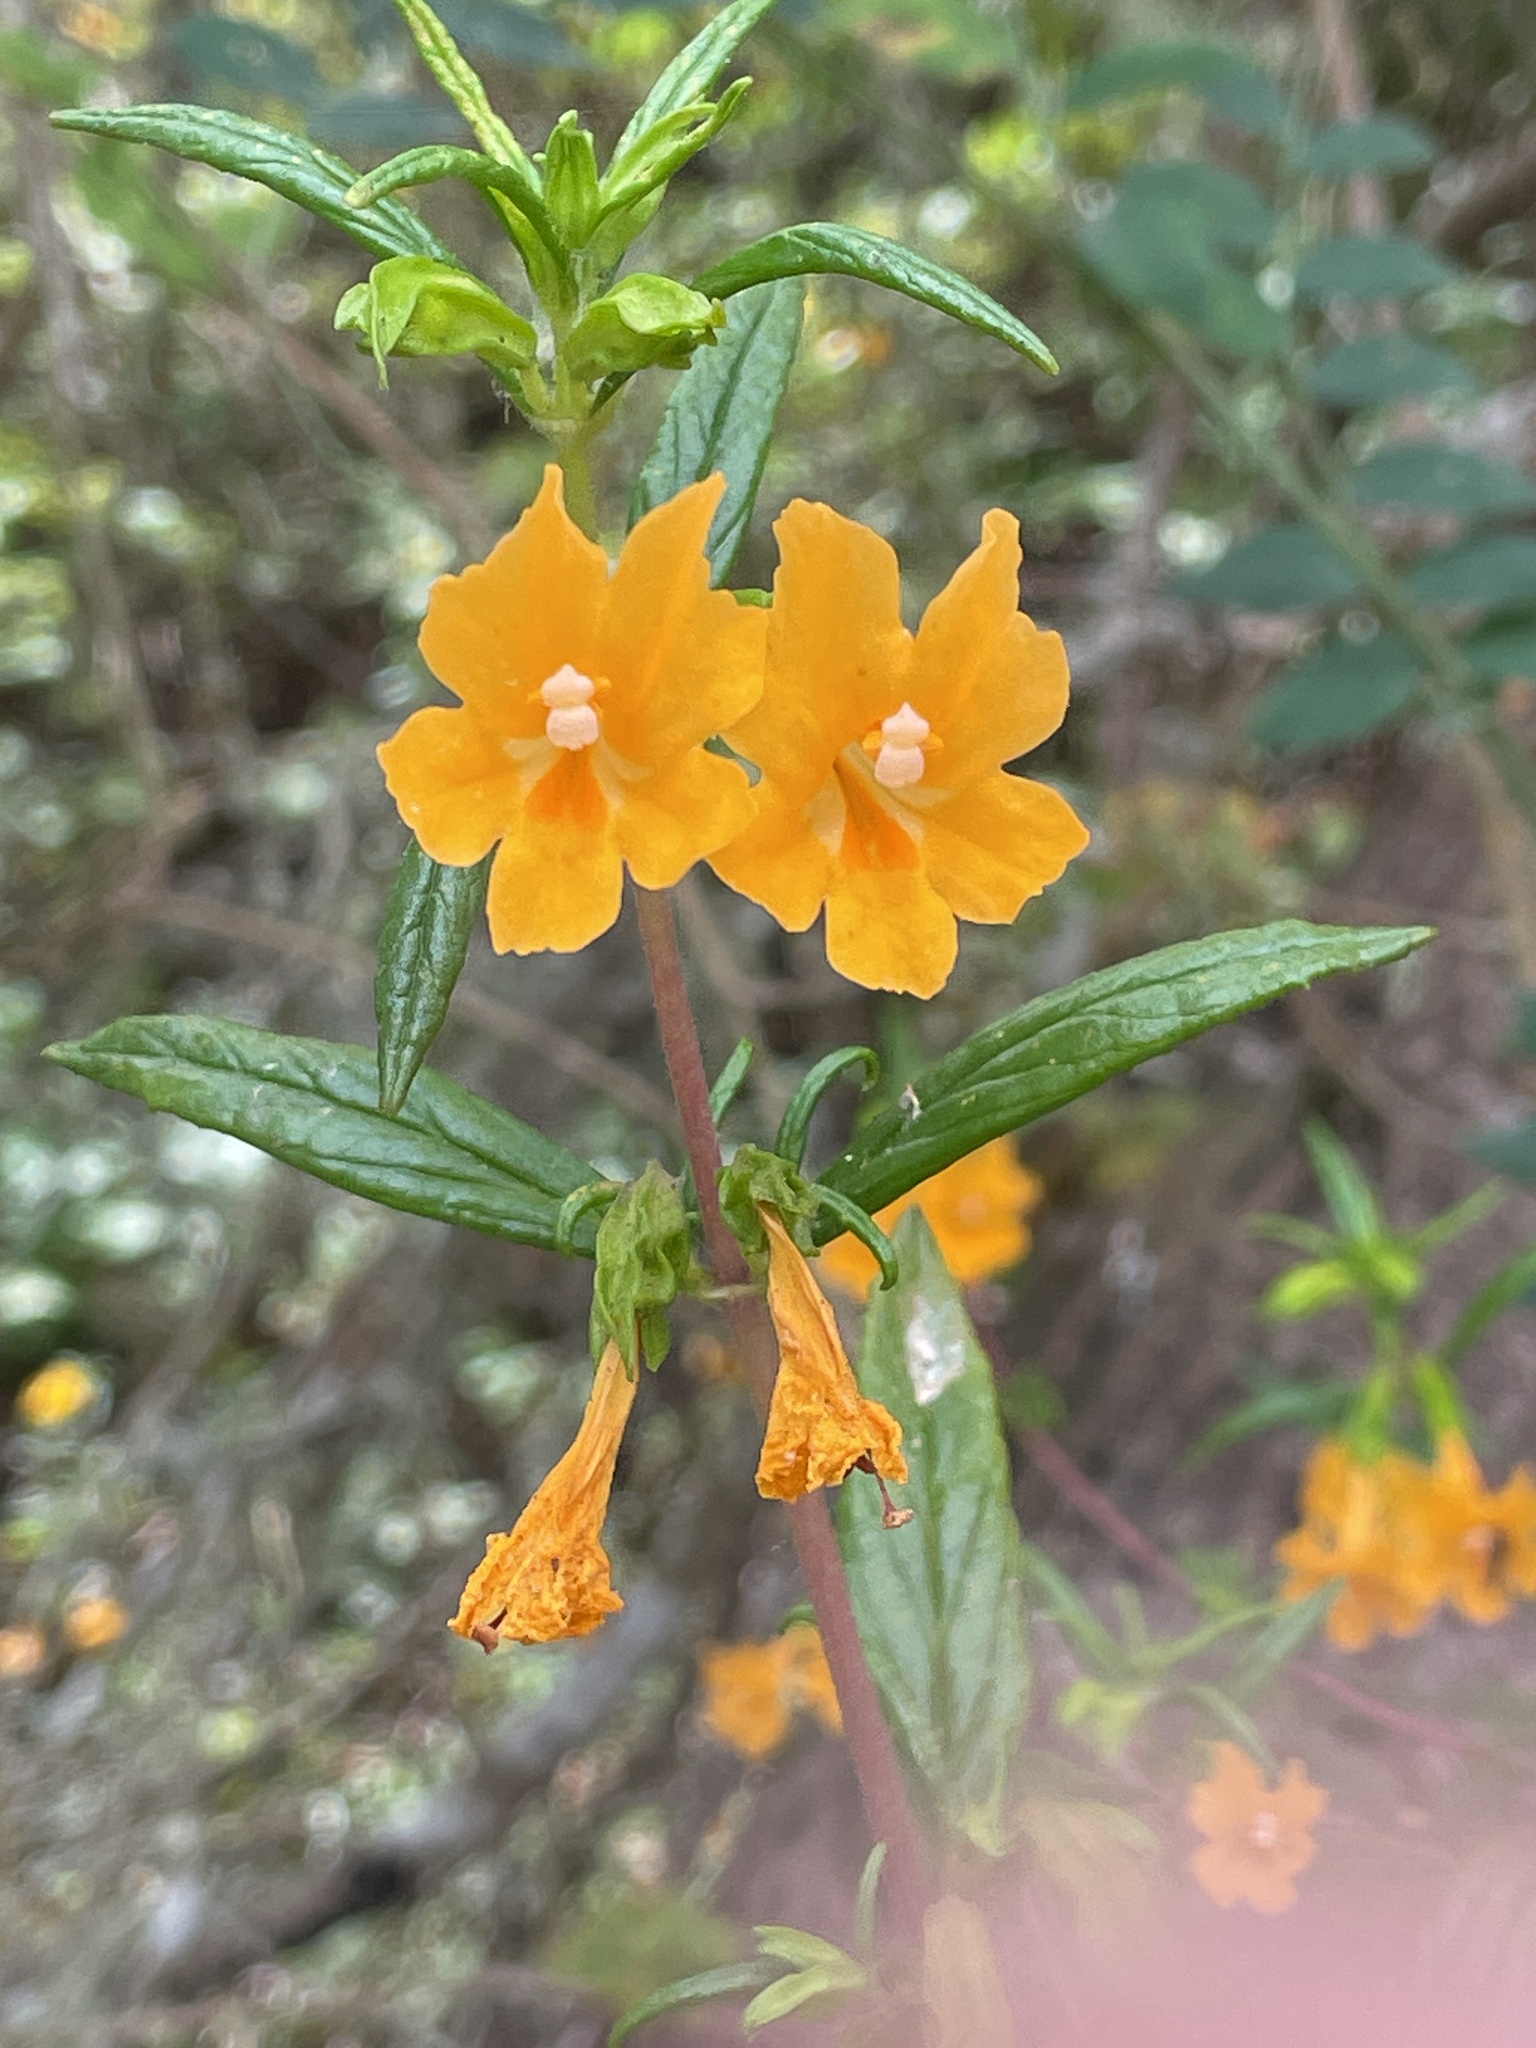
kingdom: Plantae
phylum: Tracheophyta
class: Magnoliopsida
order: Lamiales
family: Phrymaceae
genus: Diplacus
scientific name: Diplacus aurantiacus
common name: Bush monkey-flower
